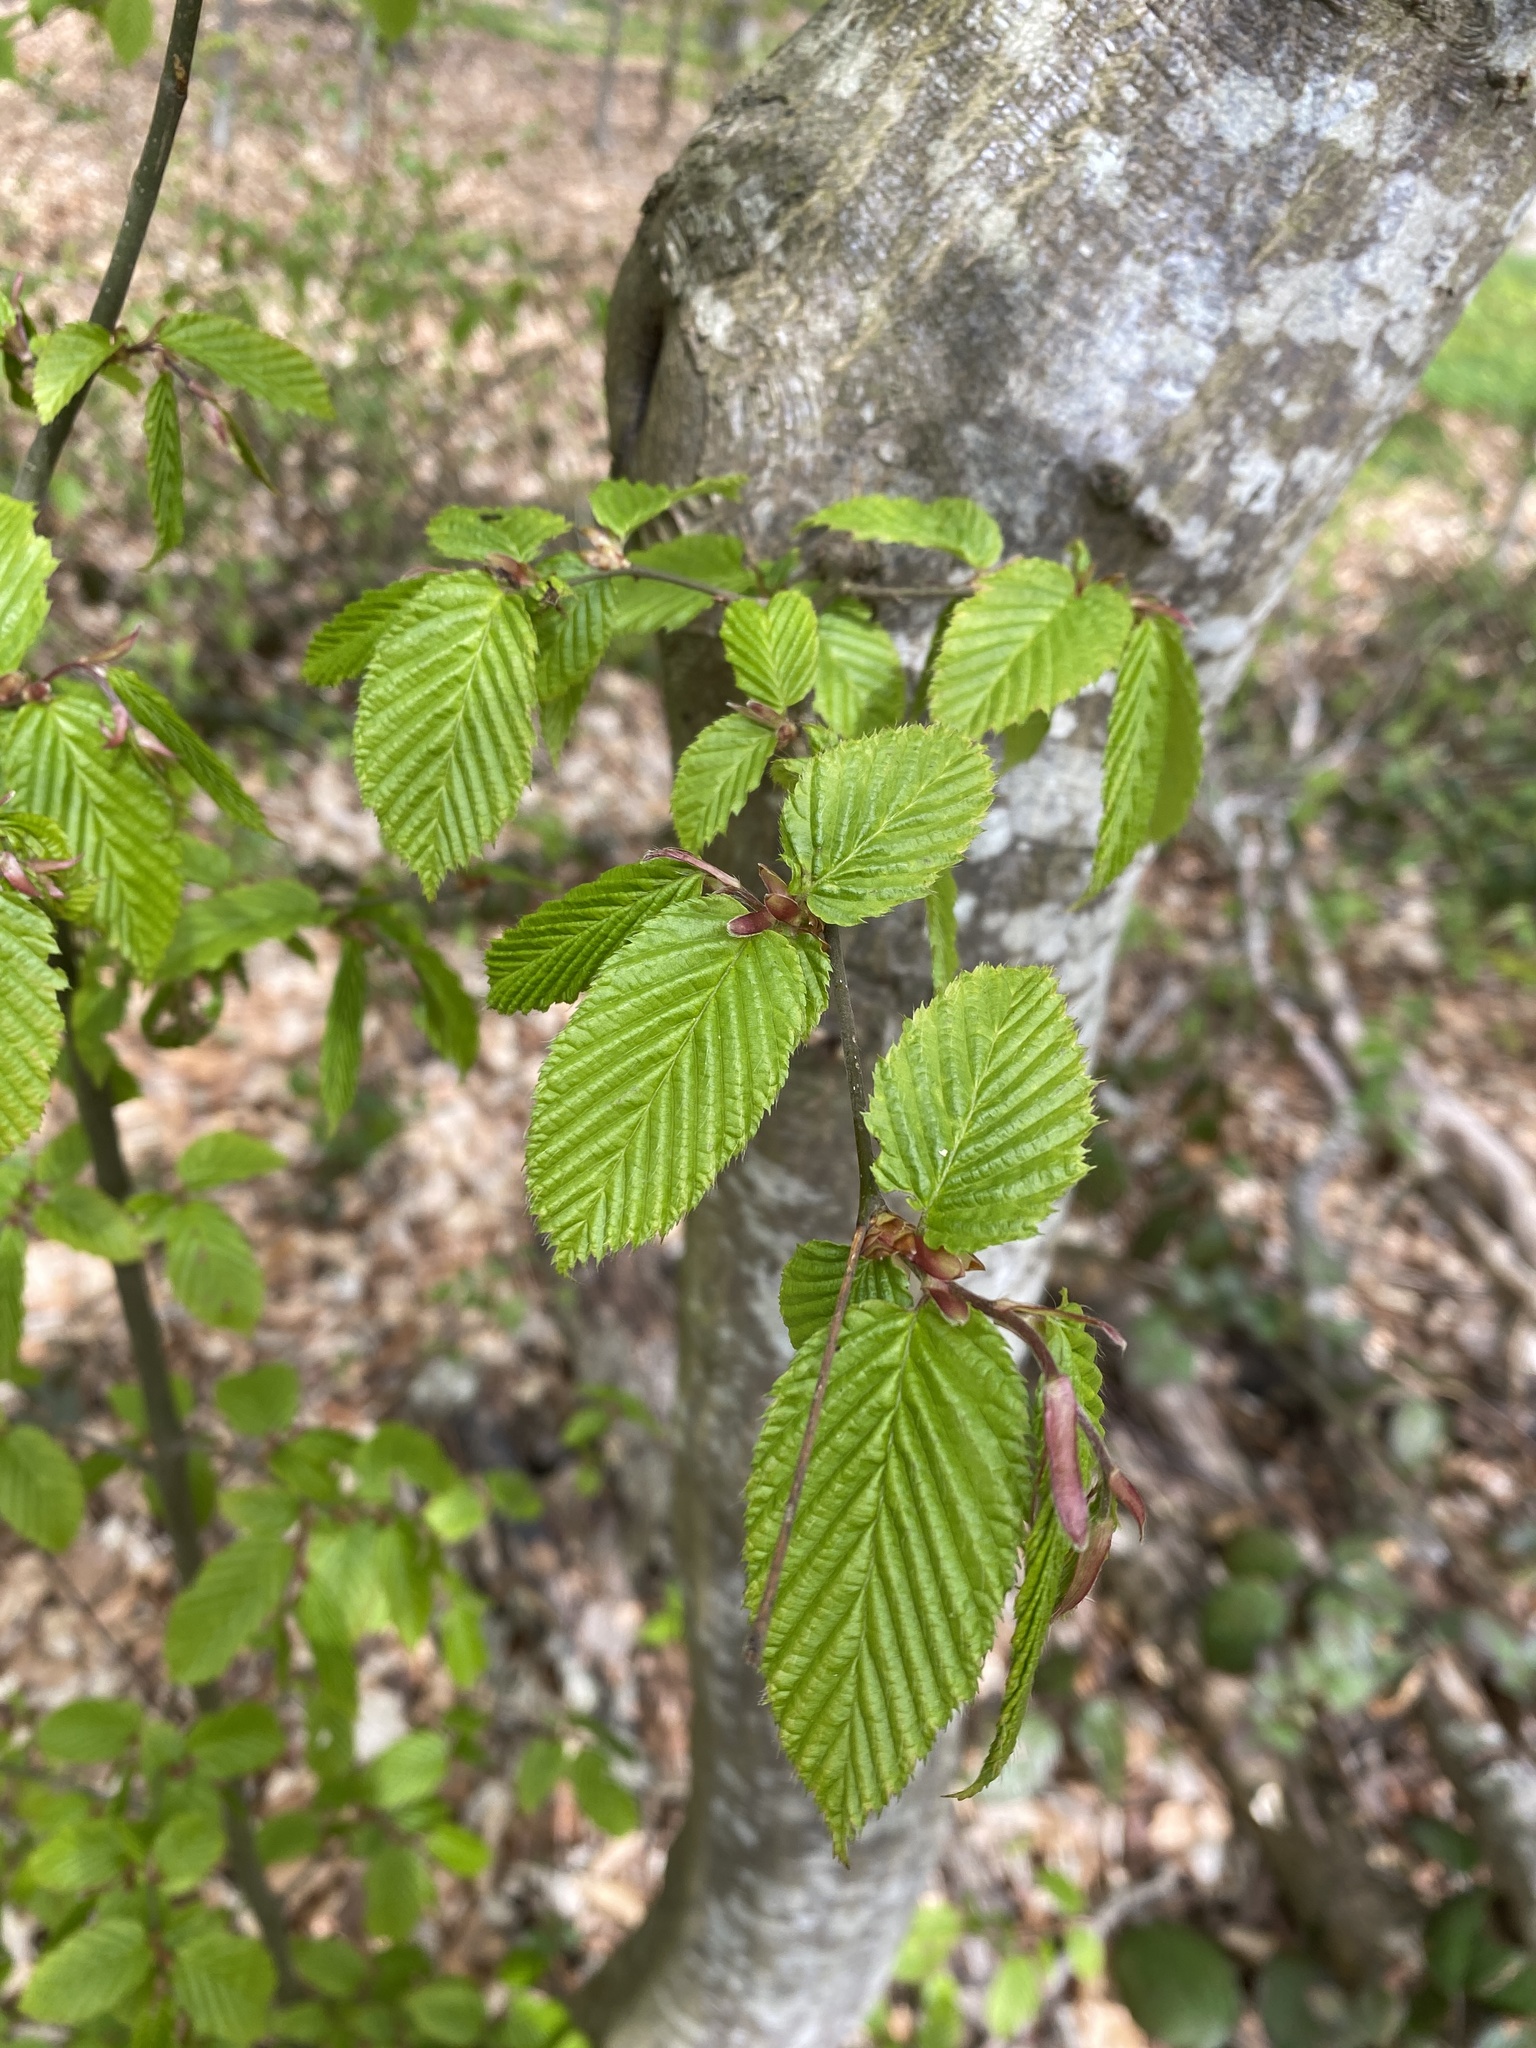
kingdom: Plantae
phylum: Tracheophyta
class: Magnoliopsida
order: Fagales
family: Betulaceae
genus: Carpinus
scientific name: Carpinus betulus
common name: Hornbeam
